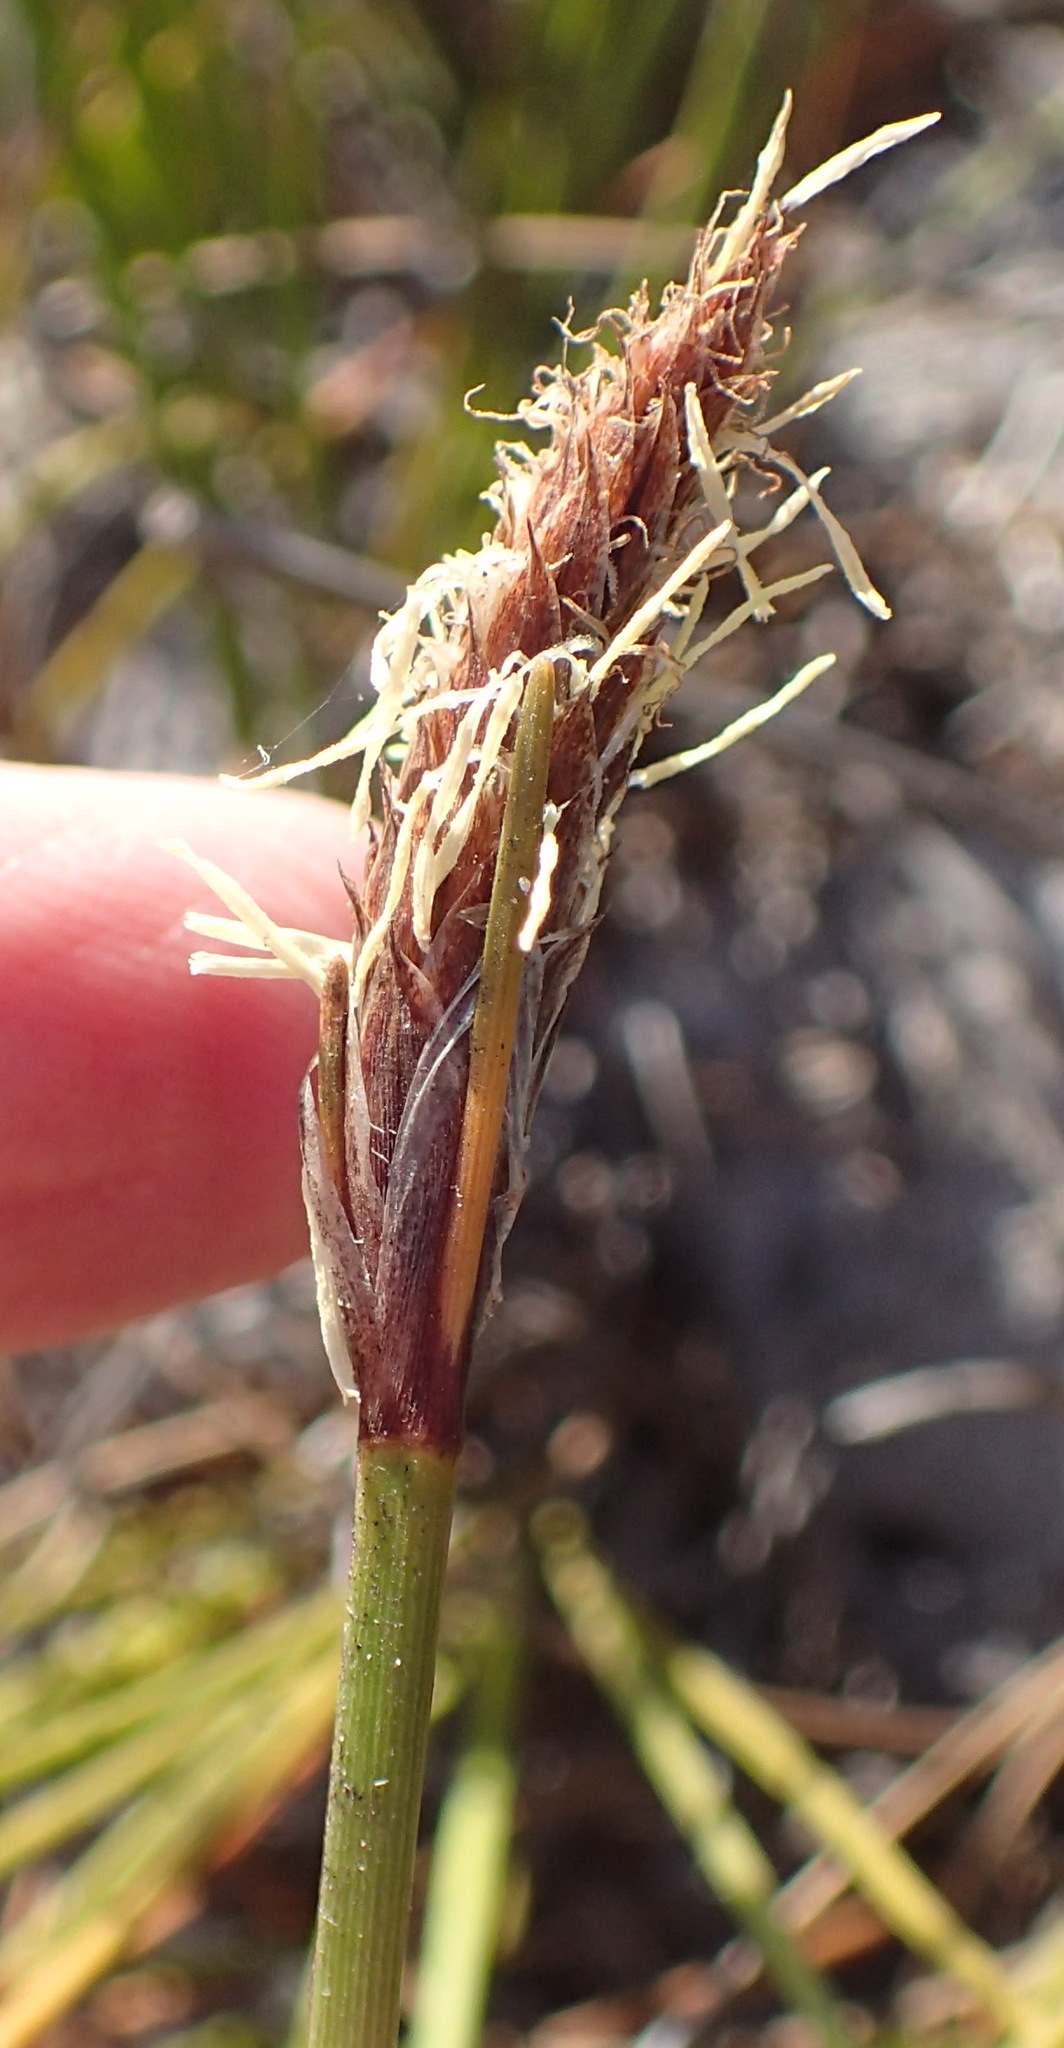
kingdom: Plantae
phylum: Tracheophyta
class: Liliopsida
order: Poales
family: Cyperaceae
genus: Ficinia
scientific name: Ficinia deusta
